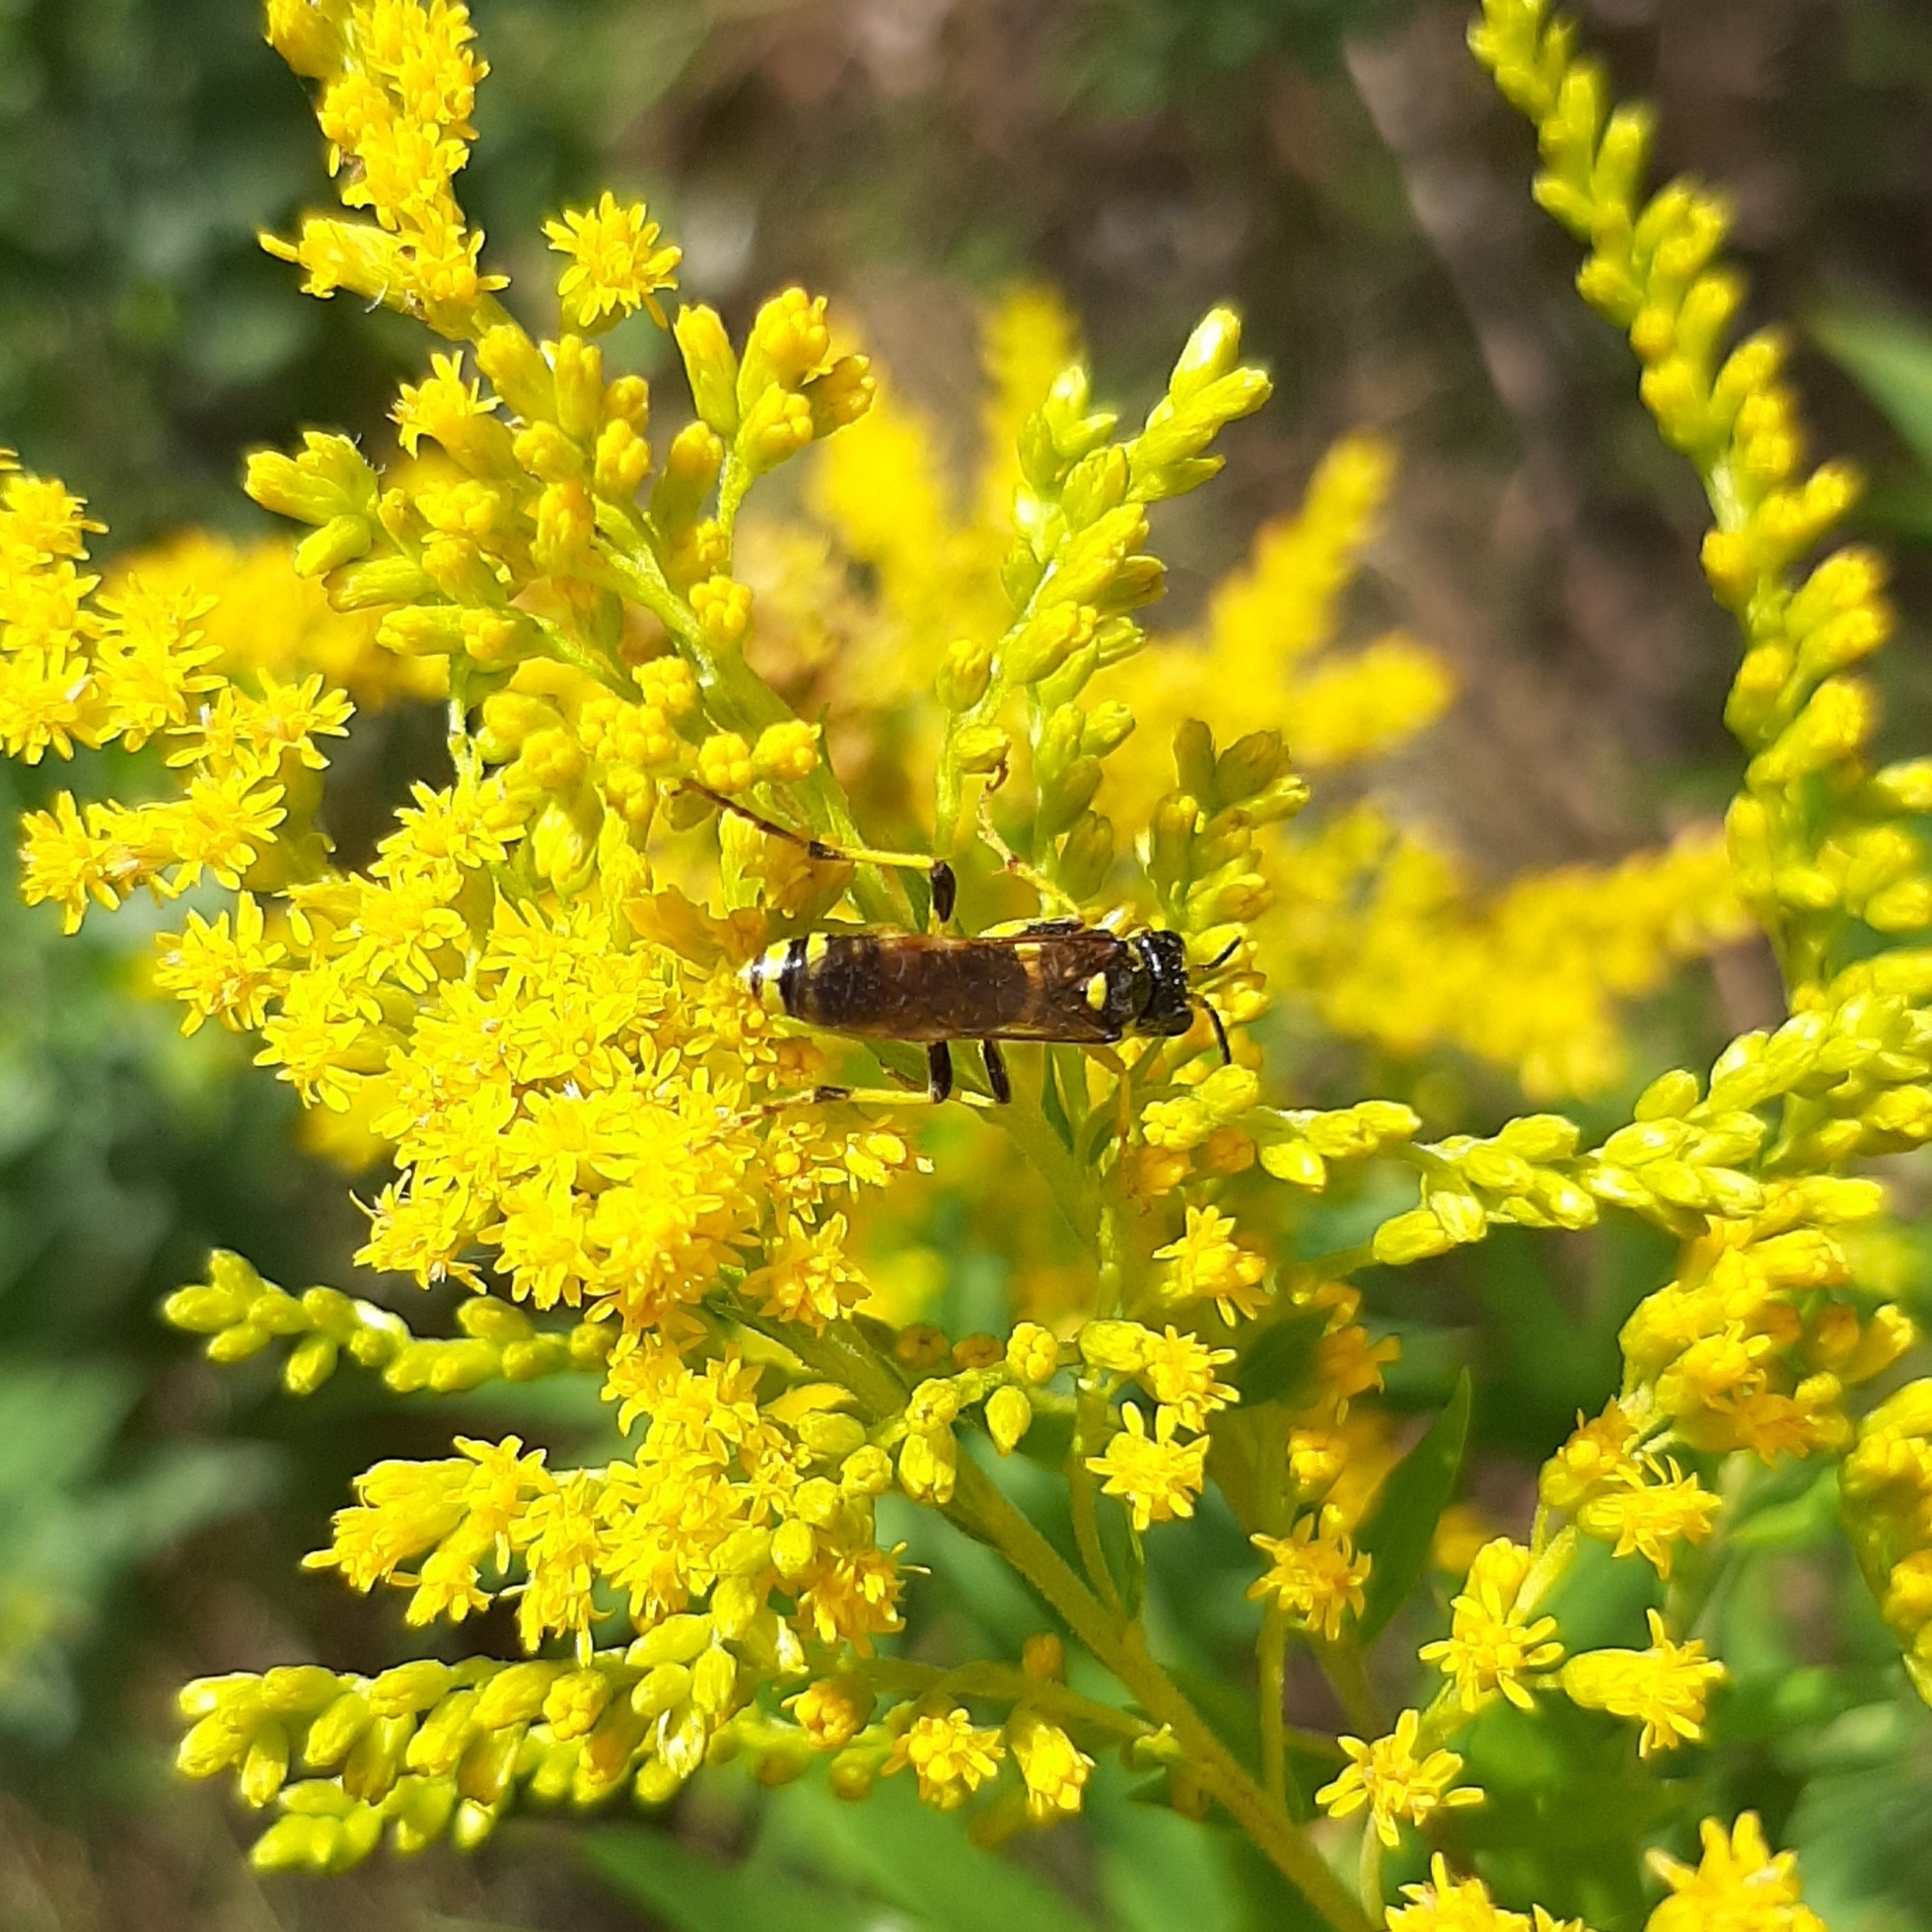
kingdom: Animalia
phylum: Arthropoda
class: Insecta
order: Hymenoptera
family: Tenthredinidae
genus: Tenthredo
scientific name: Tenthredo
